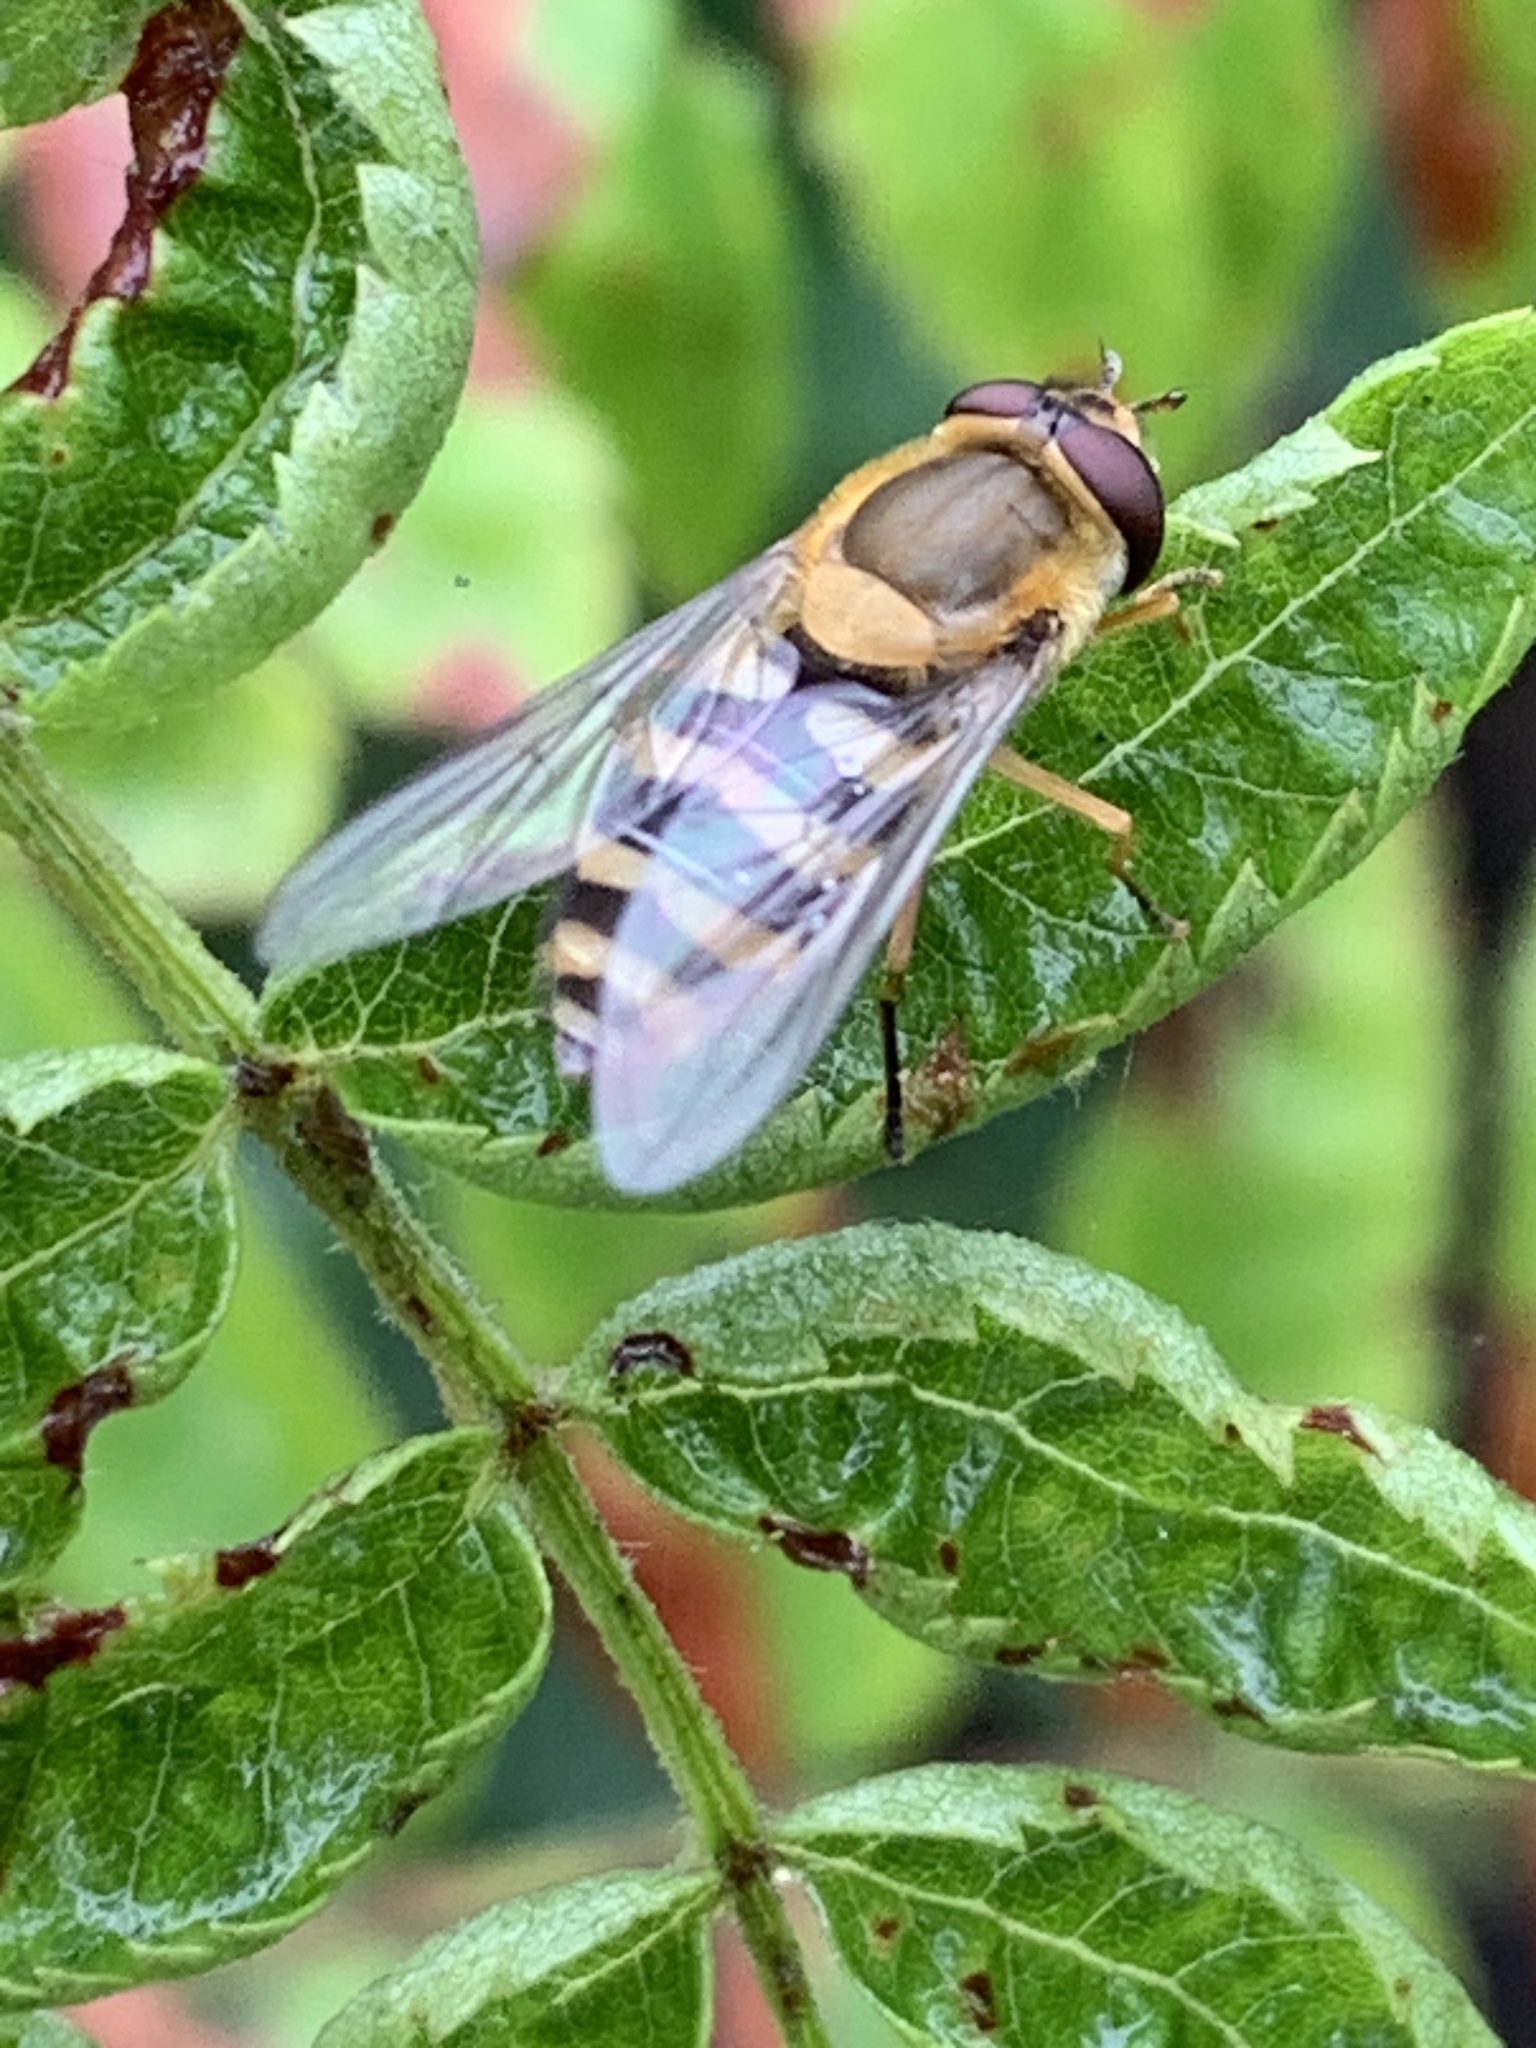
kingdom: Animalia
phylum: Arthropoda
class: Insecta
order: Diptera
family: Syrphidae
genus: Syrphus
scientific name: Syrphus
